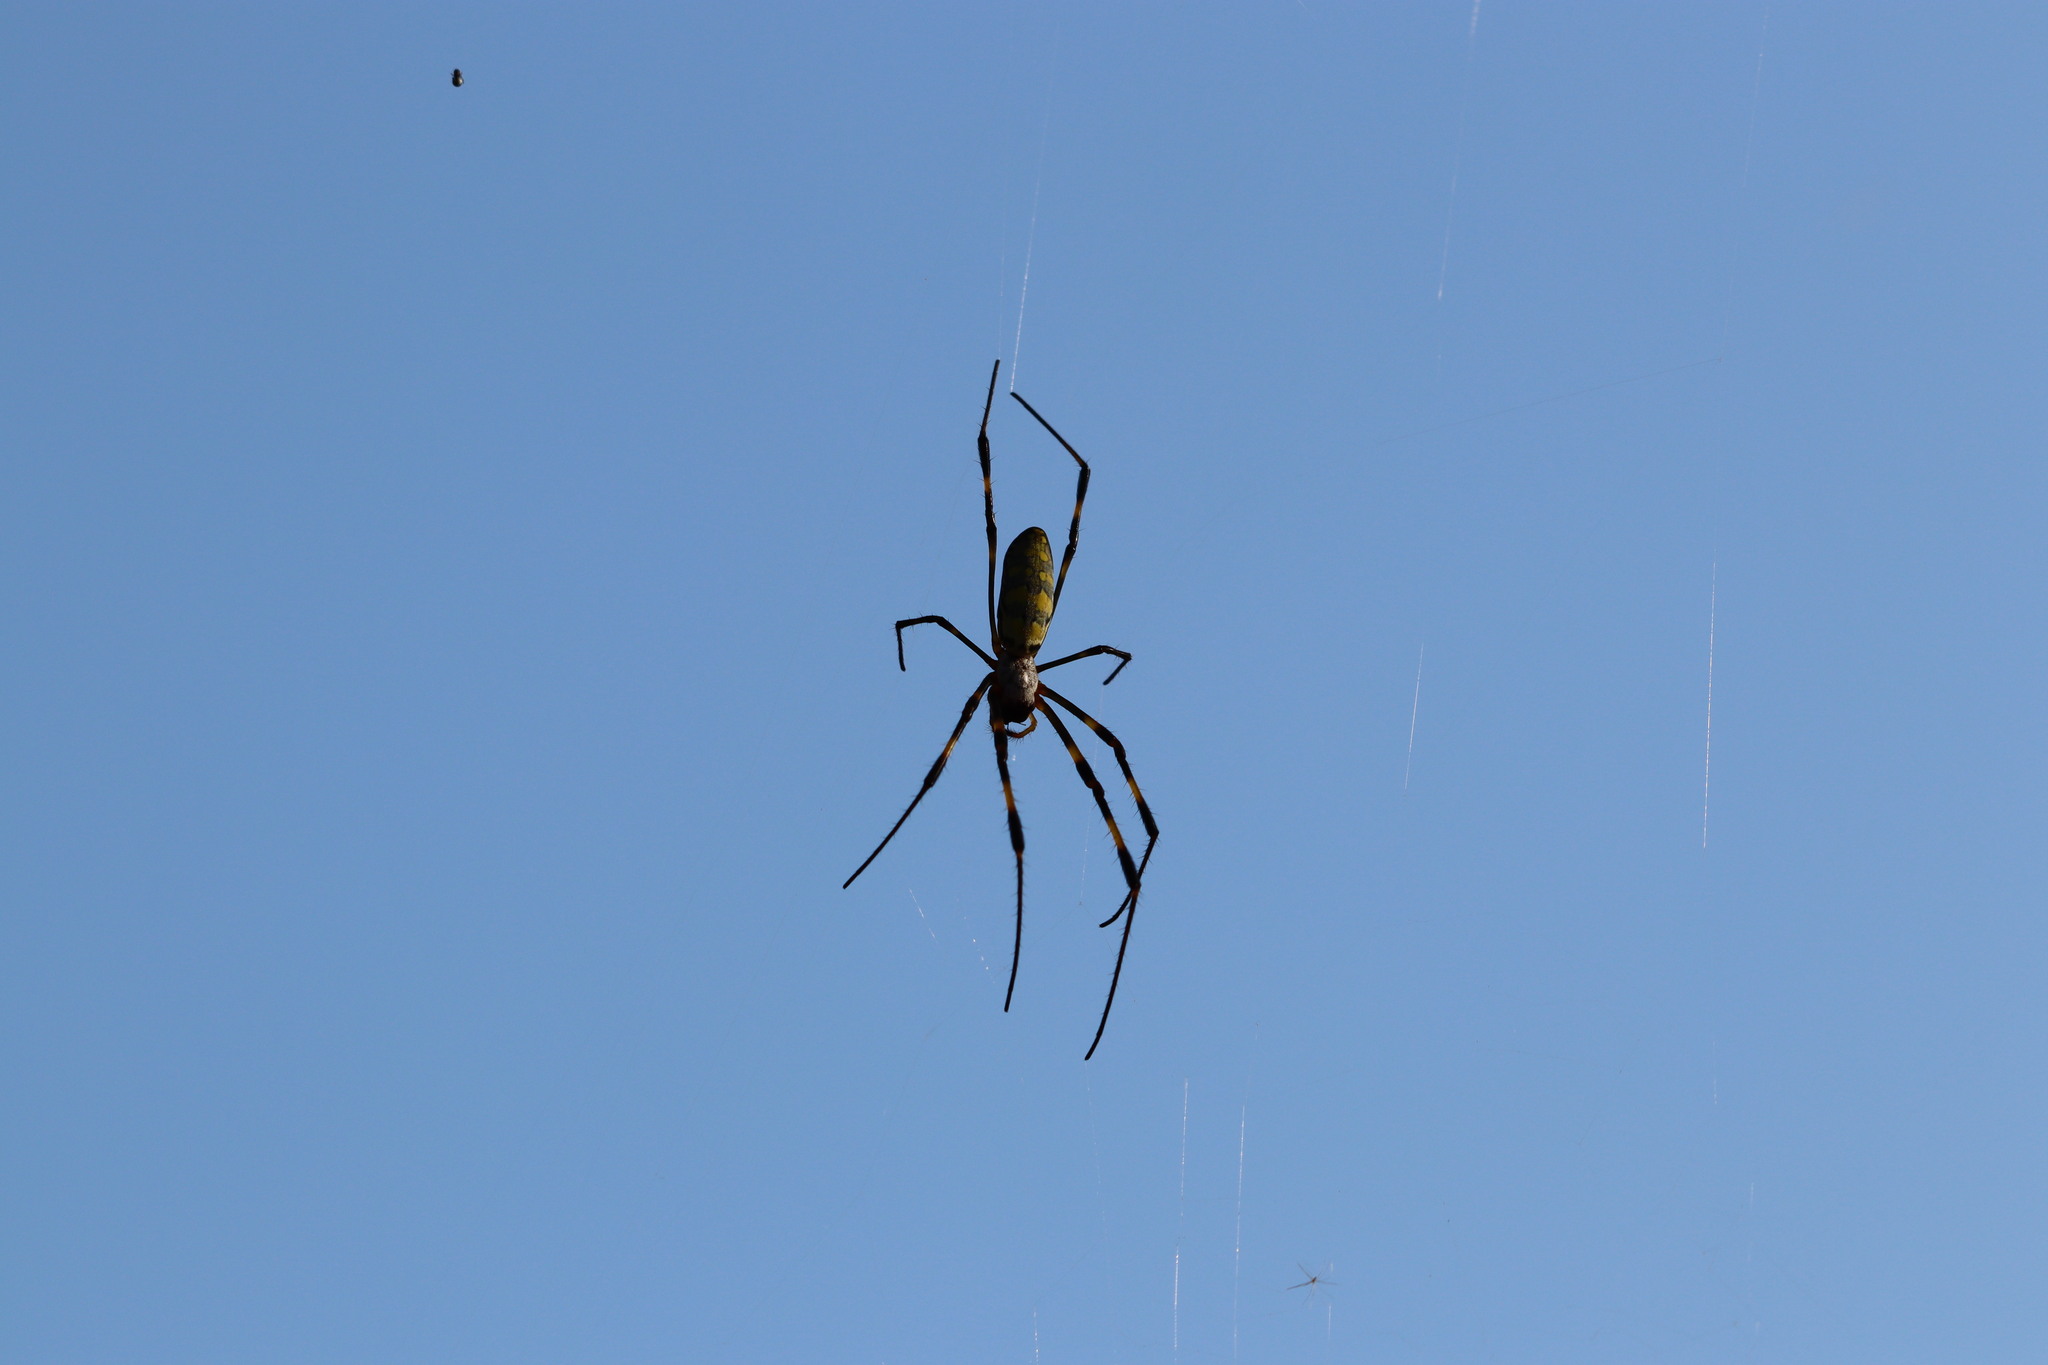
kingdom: Animalia
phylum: Arthropoda
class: Arachnida
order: Araneae
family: Araneidae
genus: Trichonephila
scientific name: Trichonephila clavata
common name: Jorō spider
